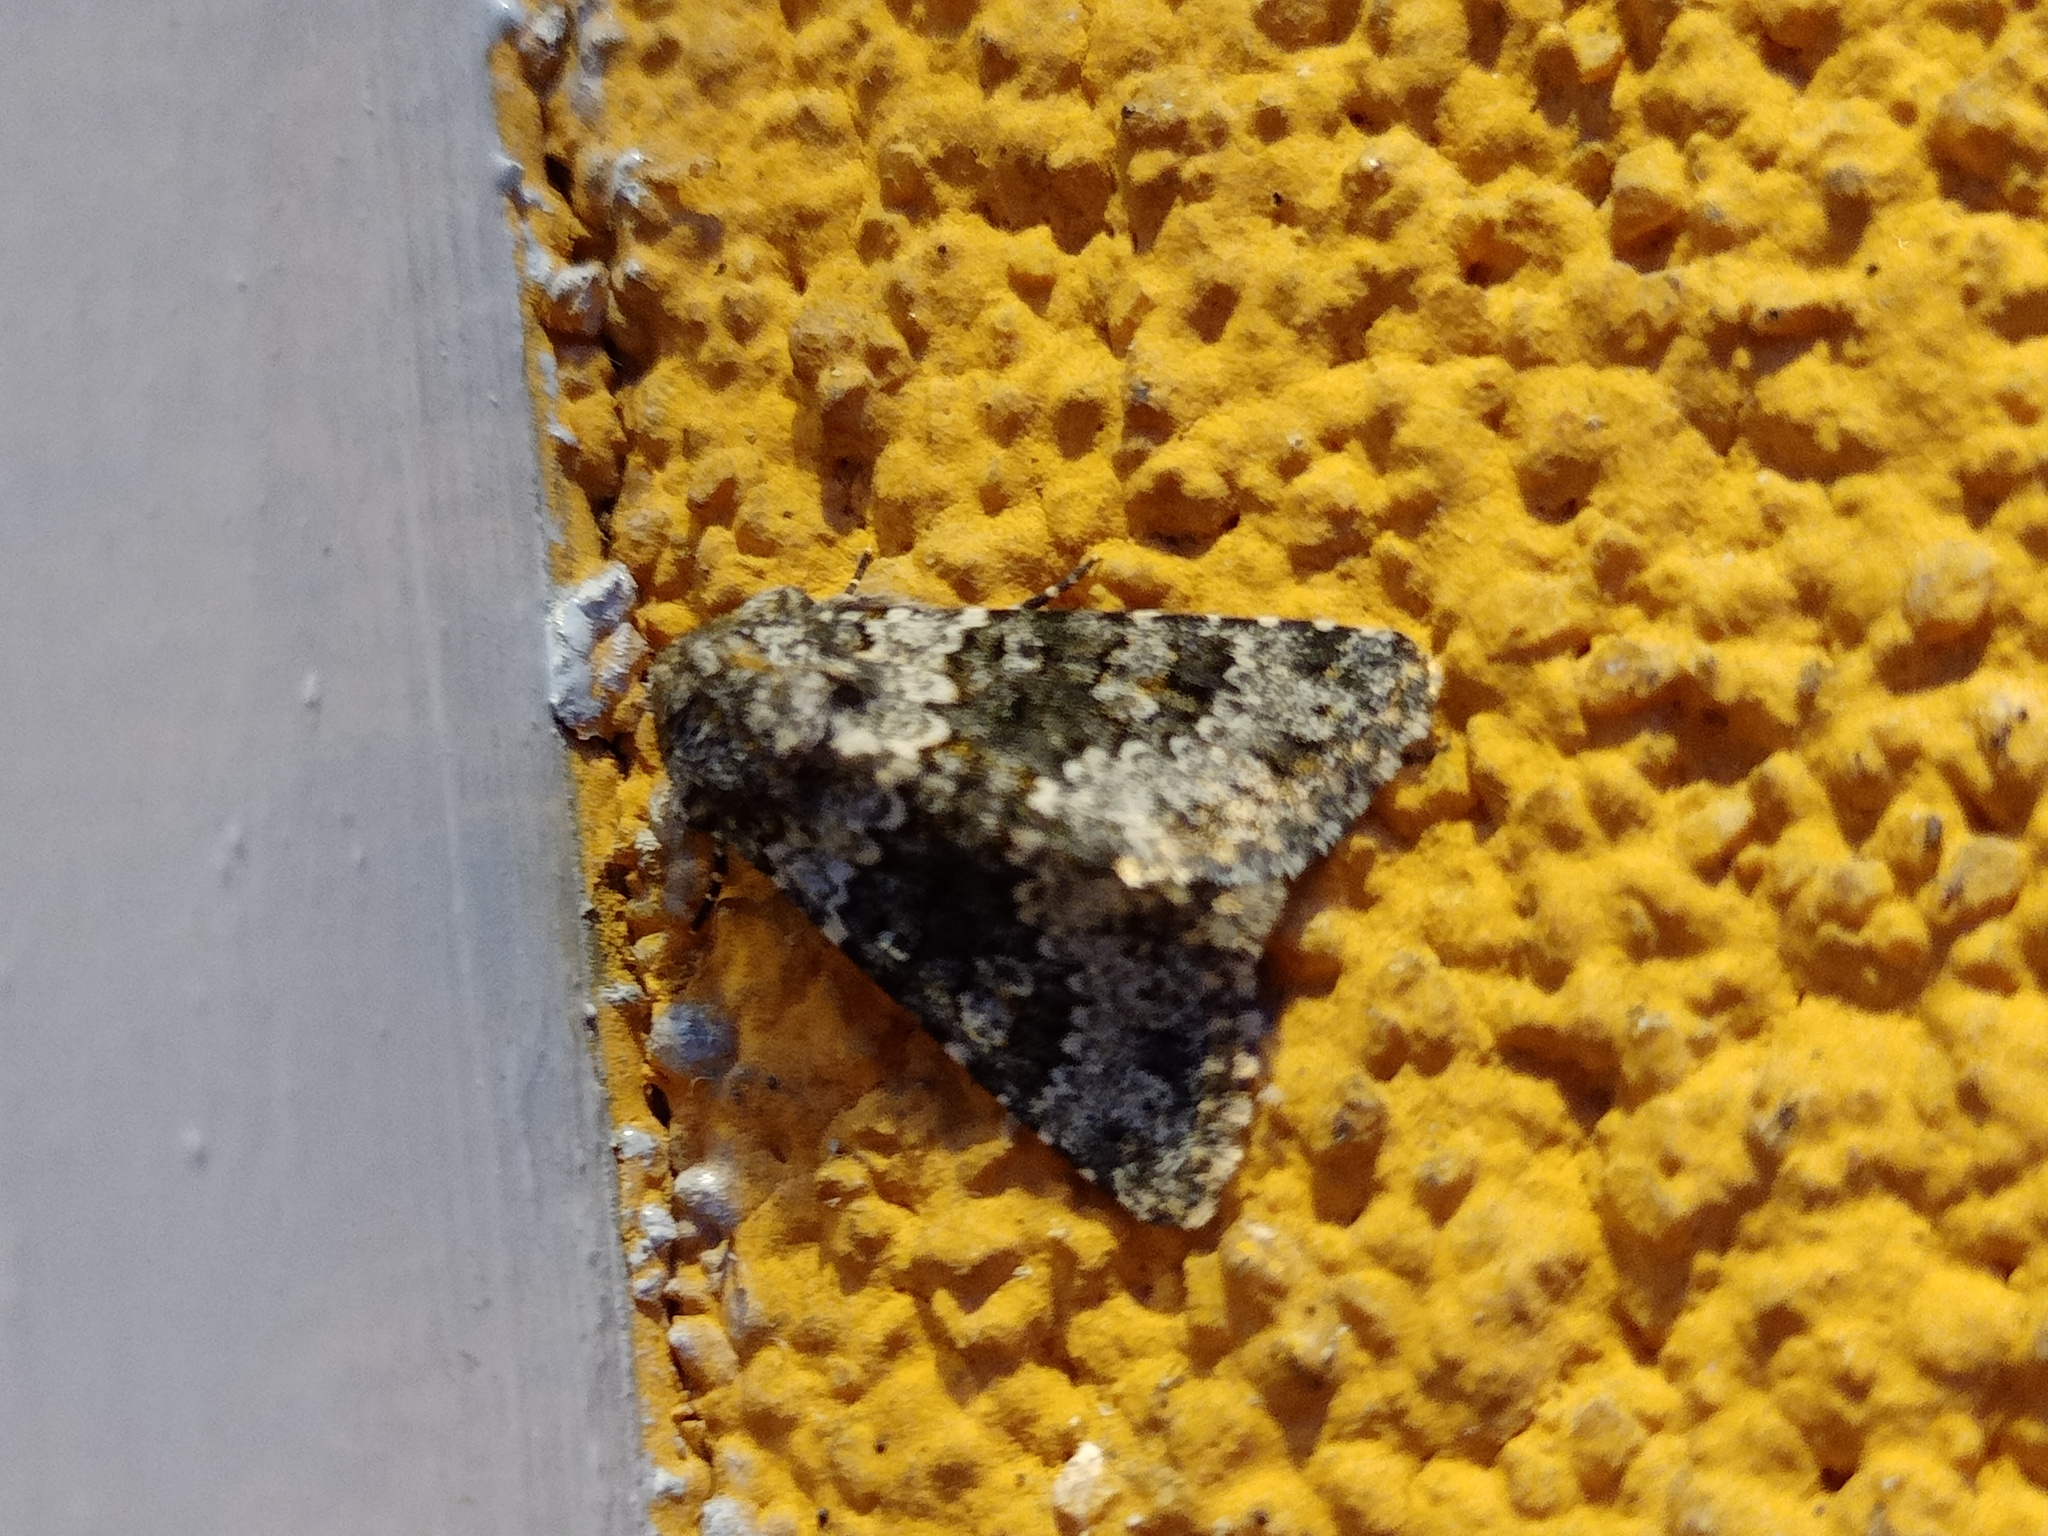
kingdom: Animalia
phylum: Arthropoda
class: Insecta
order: Lepidoptera
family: Noctuidae
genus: Hecatera
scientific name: Hecatera dysodea
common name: Small ranunculus
